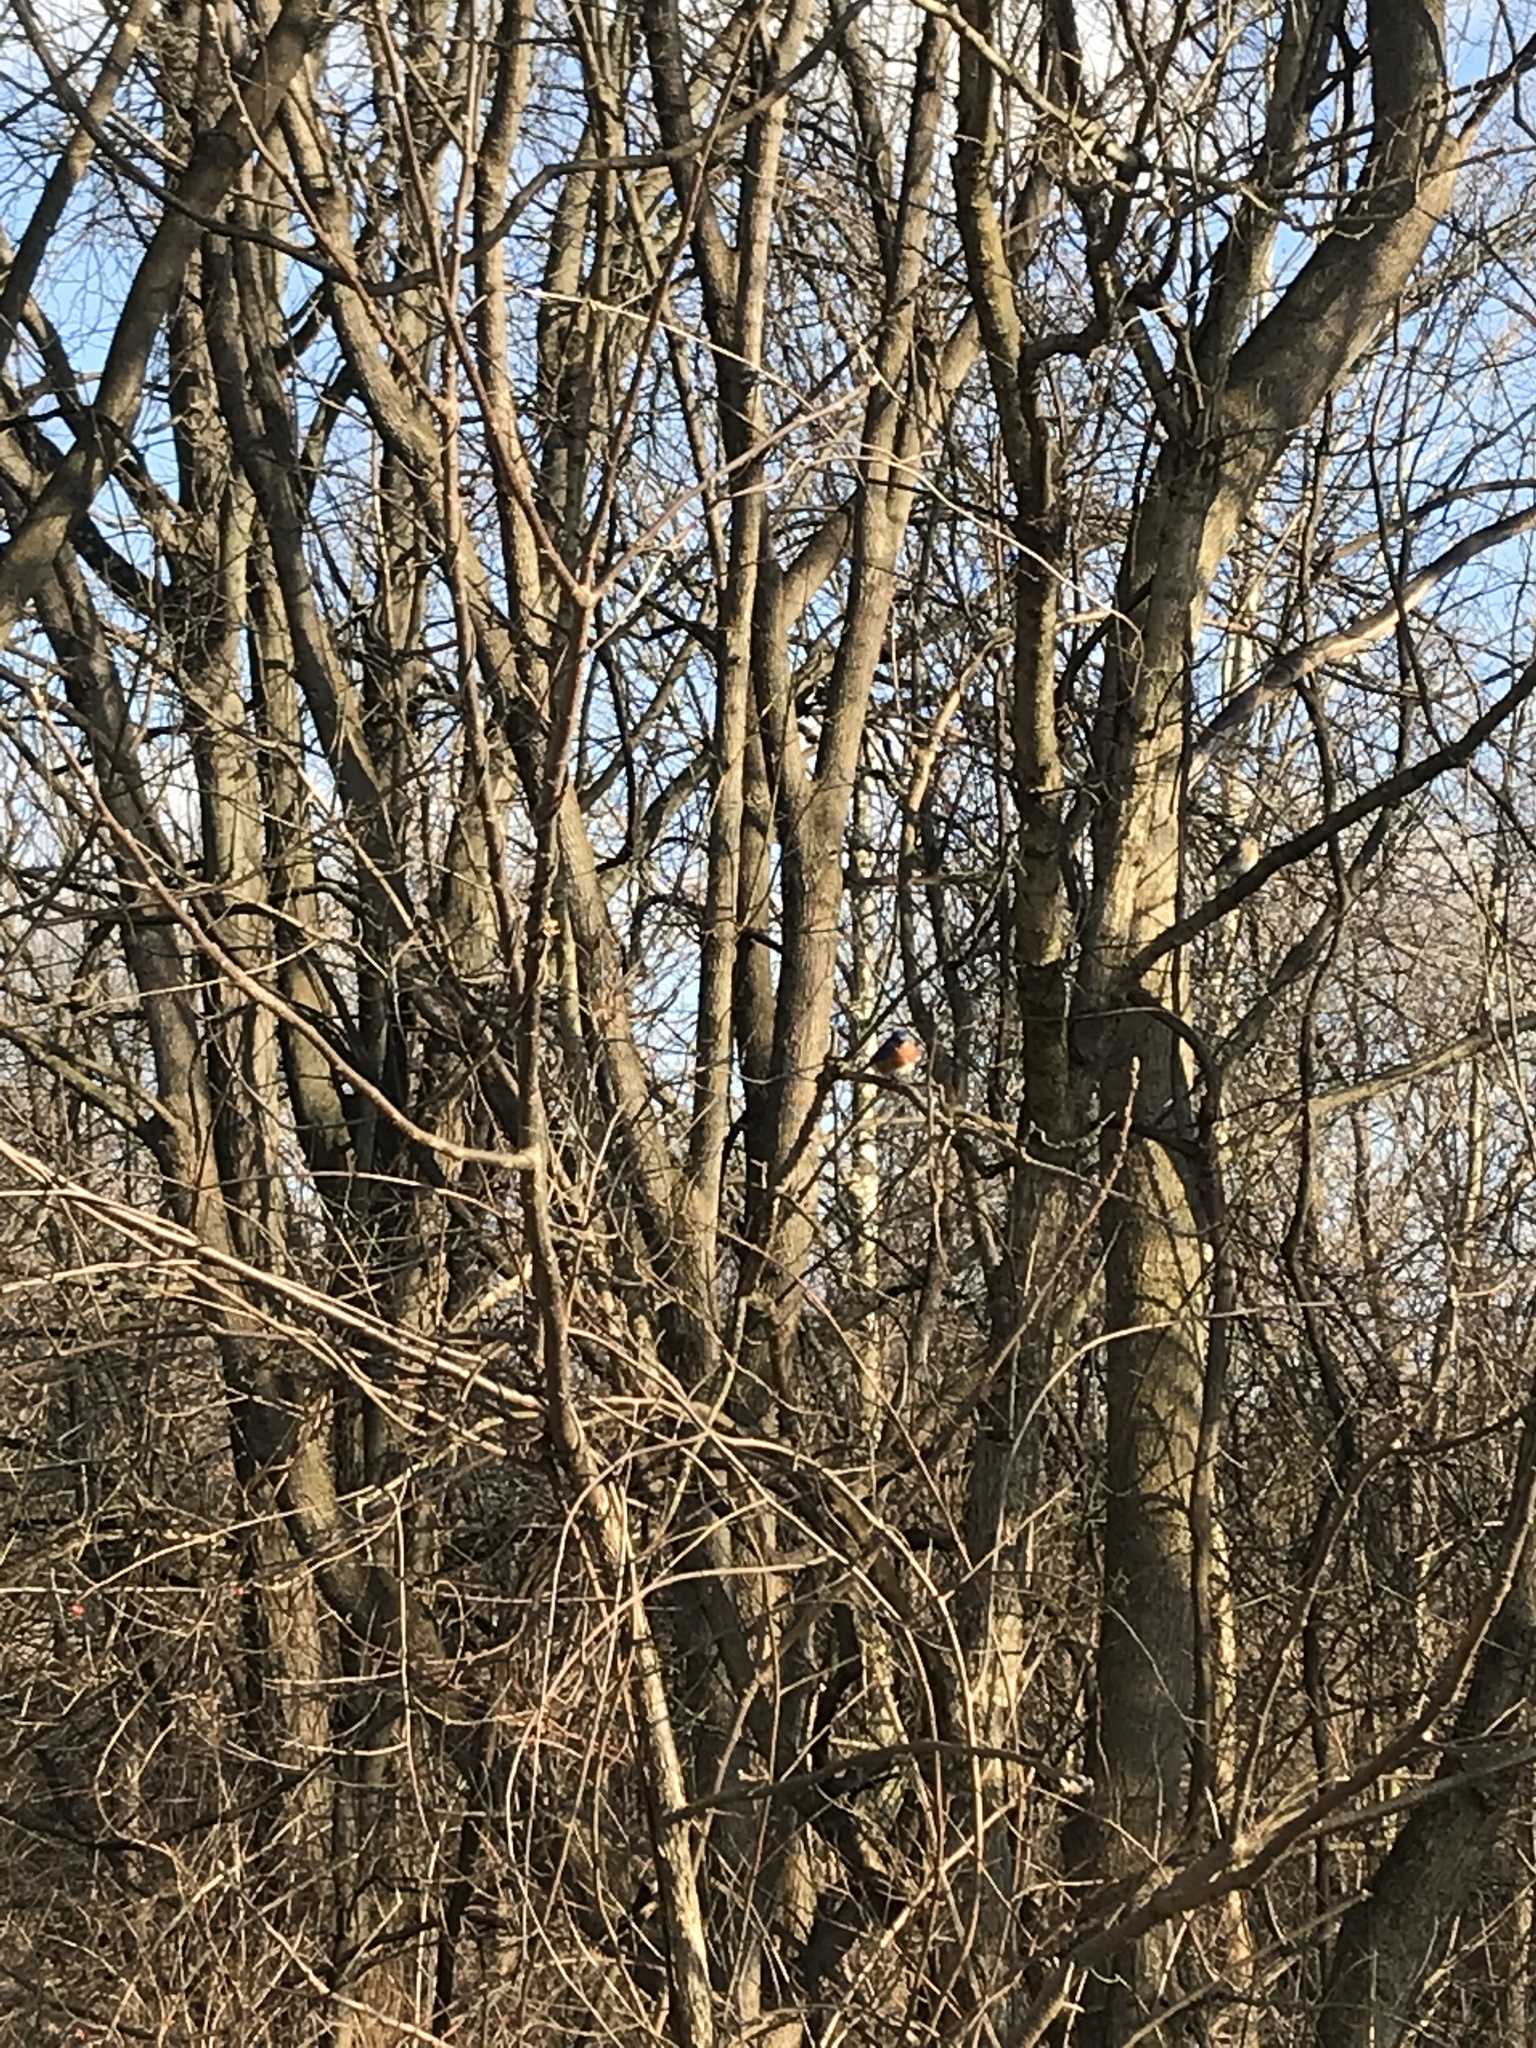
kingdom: Animalia
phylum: Chordata
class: Aves
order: Passeriformes
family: Turdidae
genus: Sialia
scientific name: Sialia sialis
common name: Eastern bluebird
